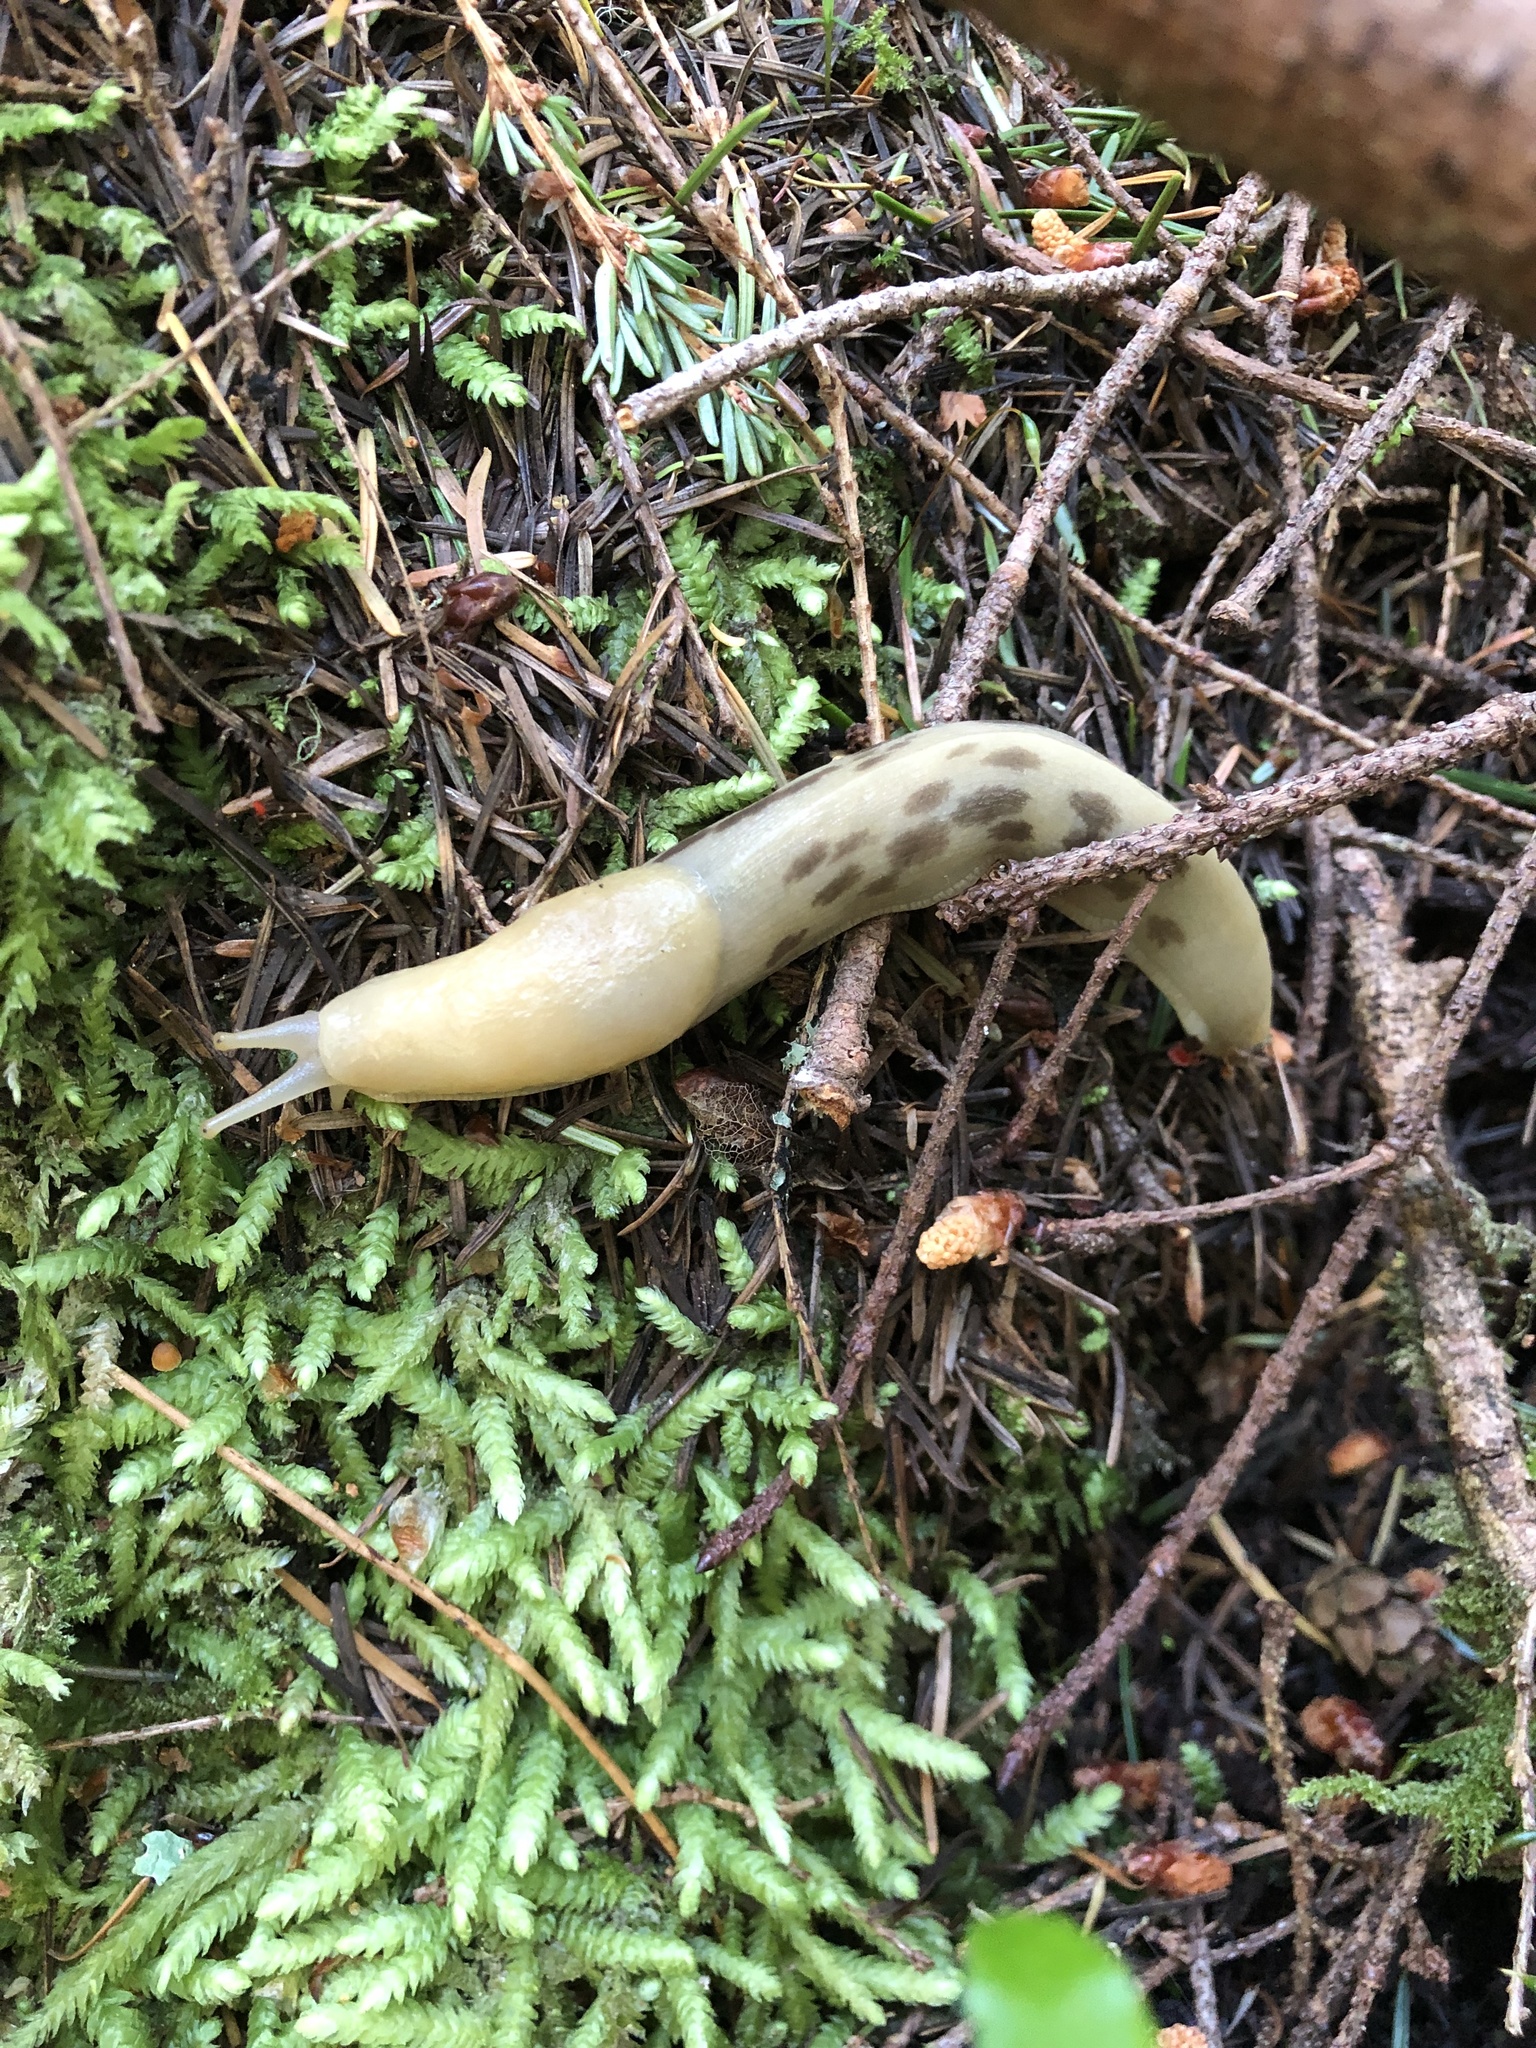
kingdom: Animalia
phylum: Mollusca
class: Gastropoda
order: Stylommatophora
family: Ariolimacidae
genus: Ariolimax
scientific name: Ariolimax columbianus
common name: Pacific banana slug
